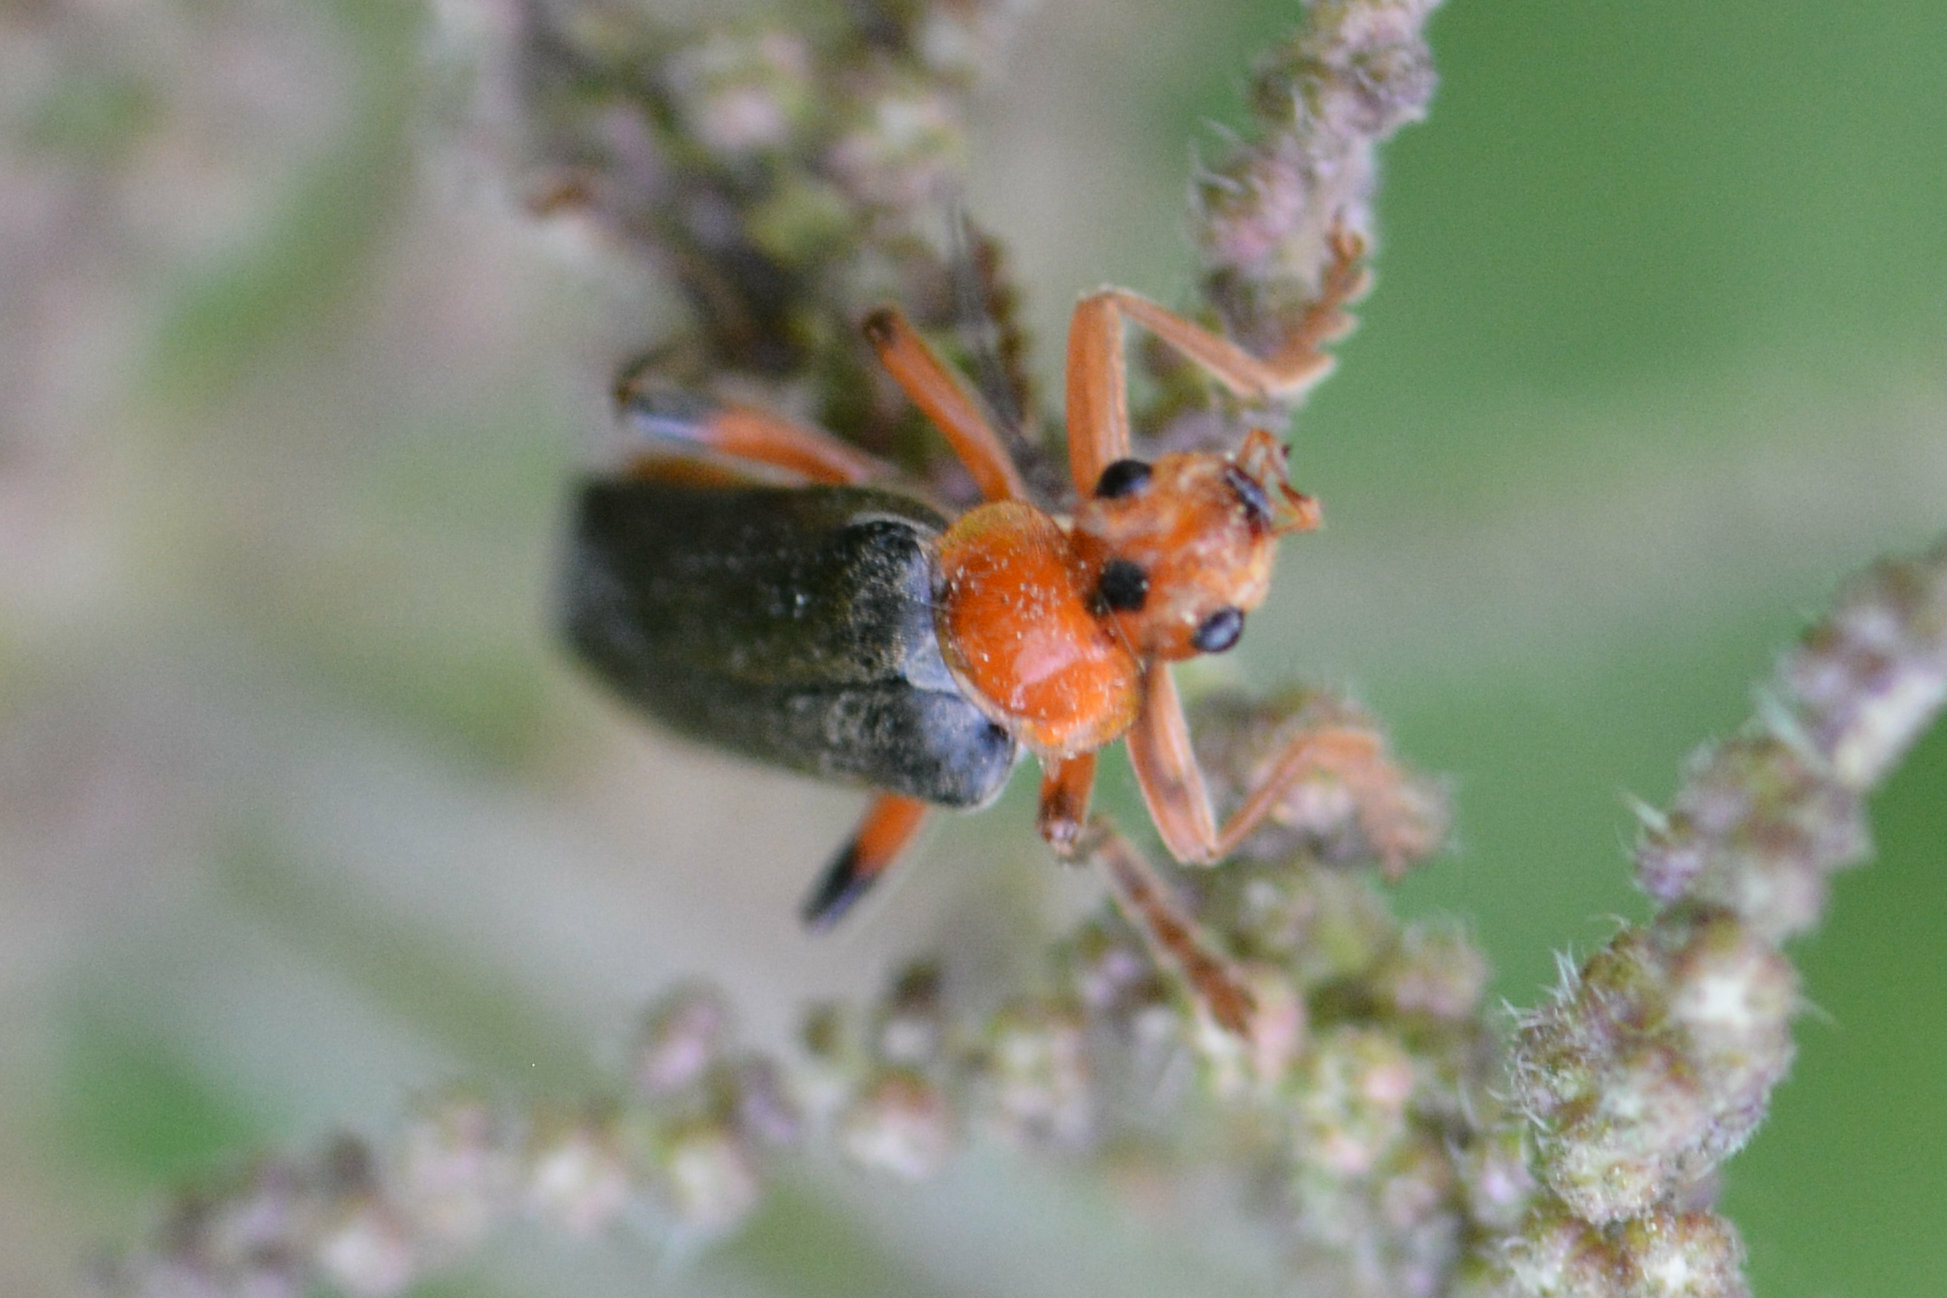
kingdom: Animalia
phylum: Arthropoda
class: Insecta
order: Coleoptera
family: Cantharidae
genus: Cantharis
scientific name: Cantharis livida
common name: Livid soldier beetle
